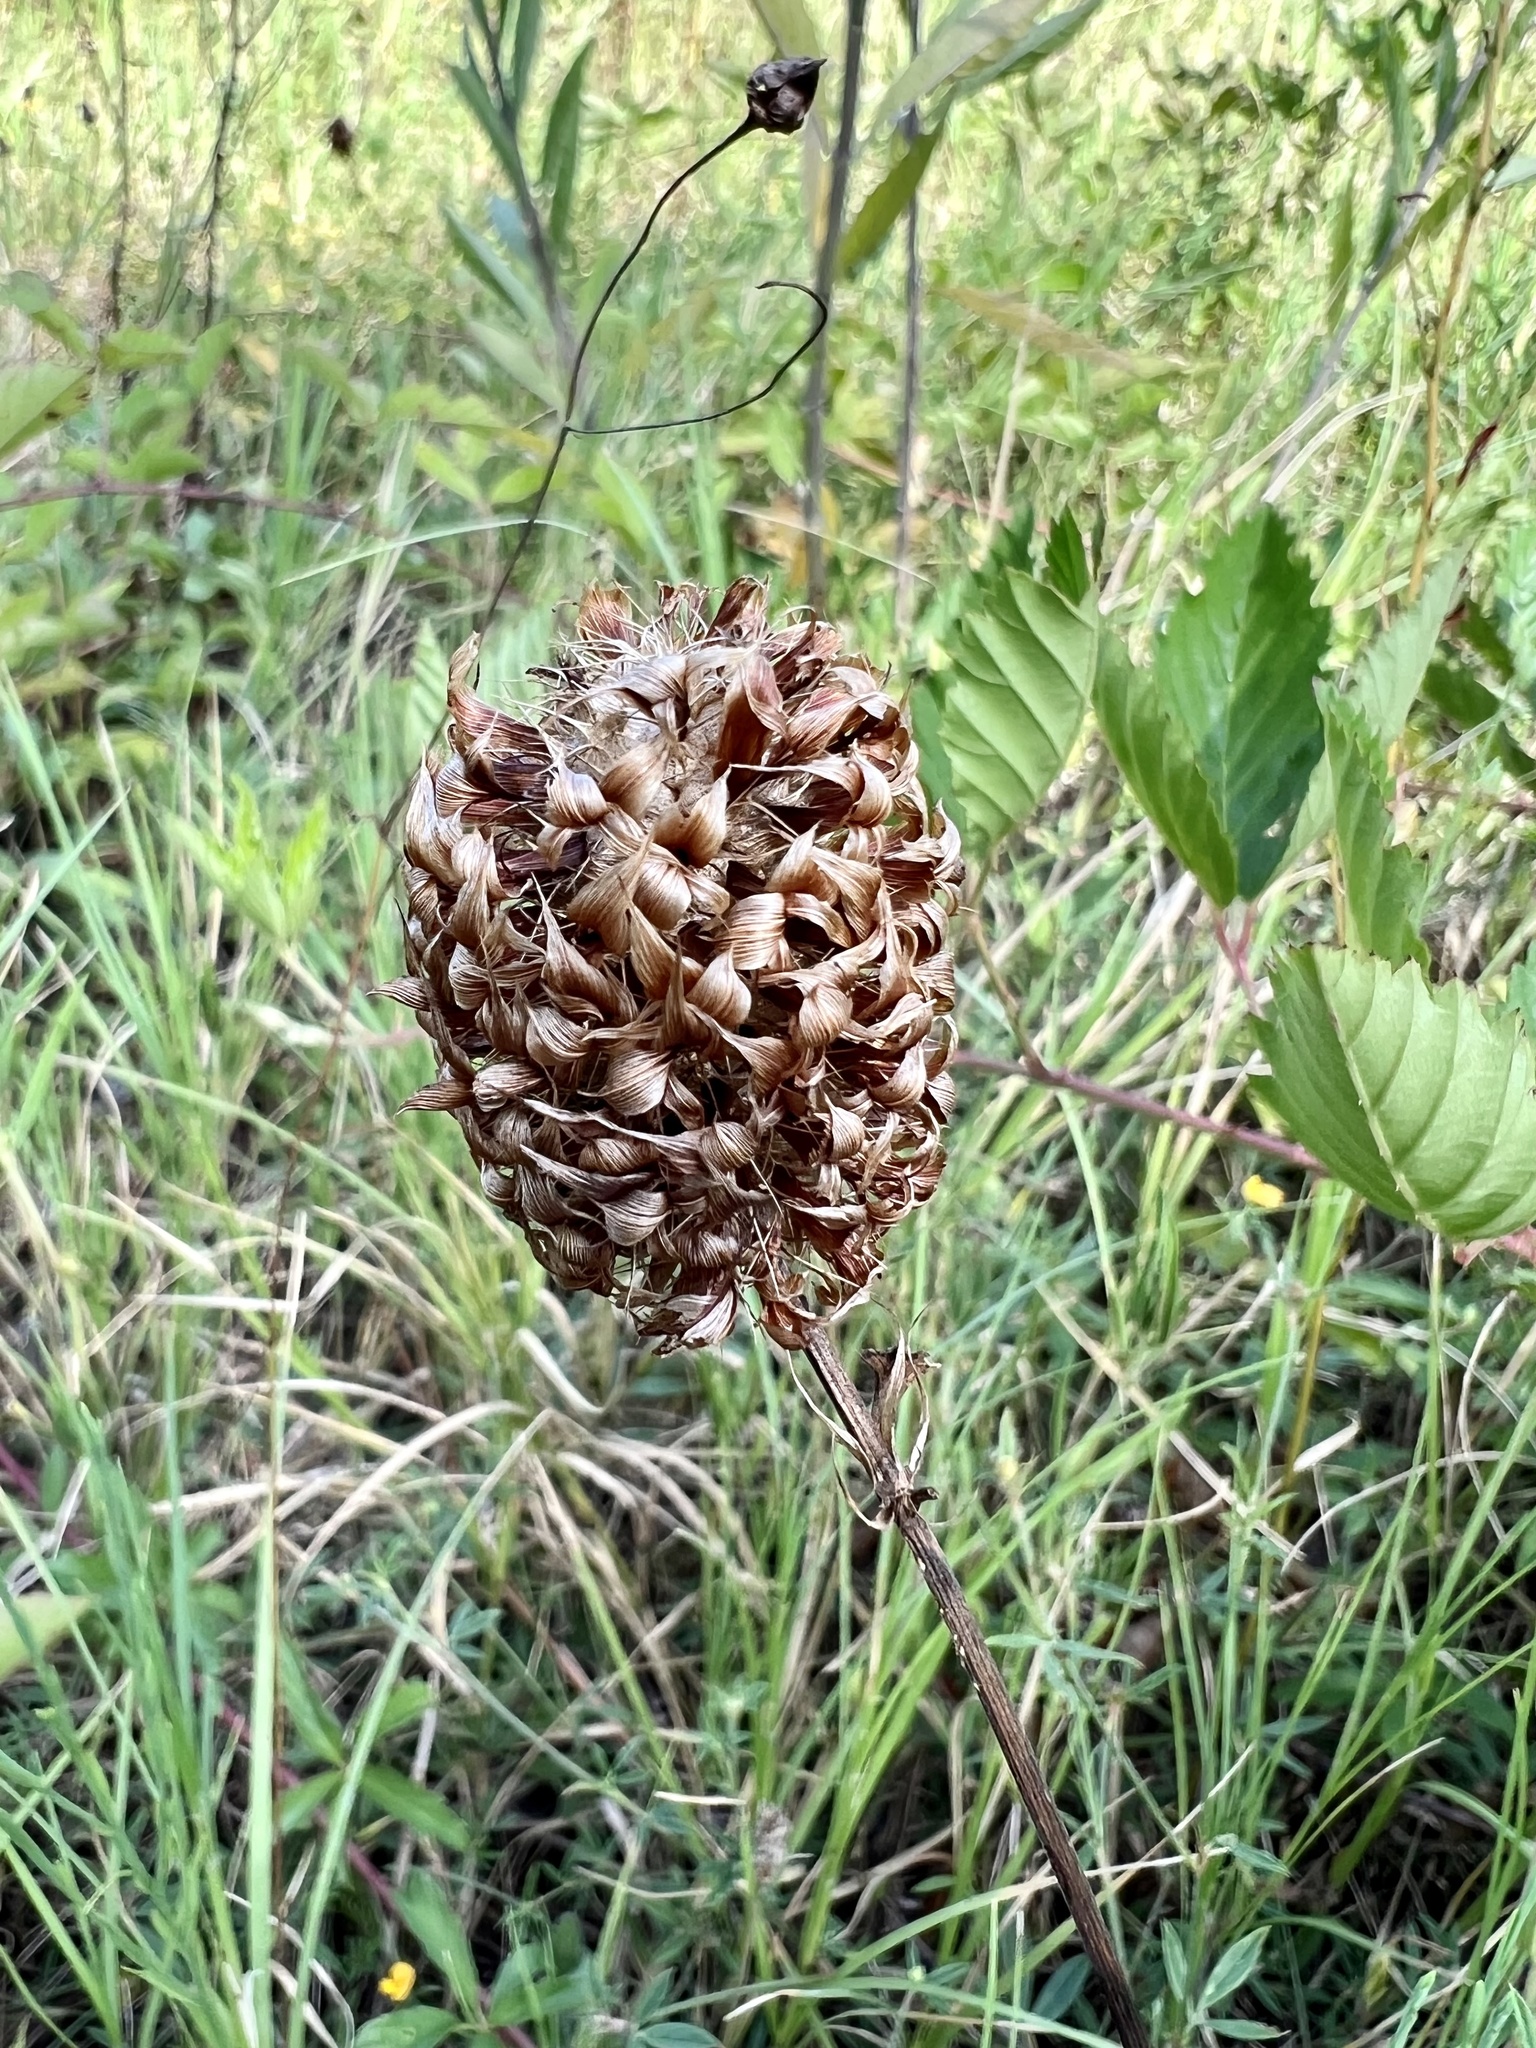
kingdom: Plantae
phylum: Tracheophyta
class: Magnoliopsida
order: Fabales
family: Fabaceae
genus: Trifolium
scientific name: Trifolium vesiculosum
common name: Arrowleaf clover
